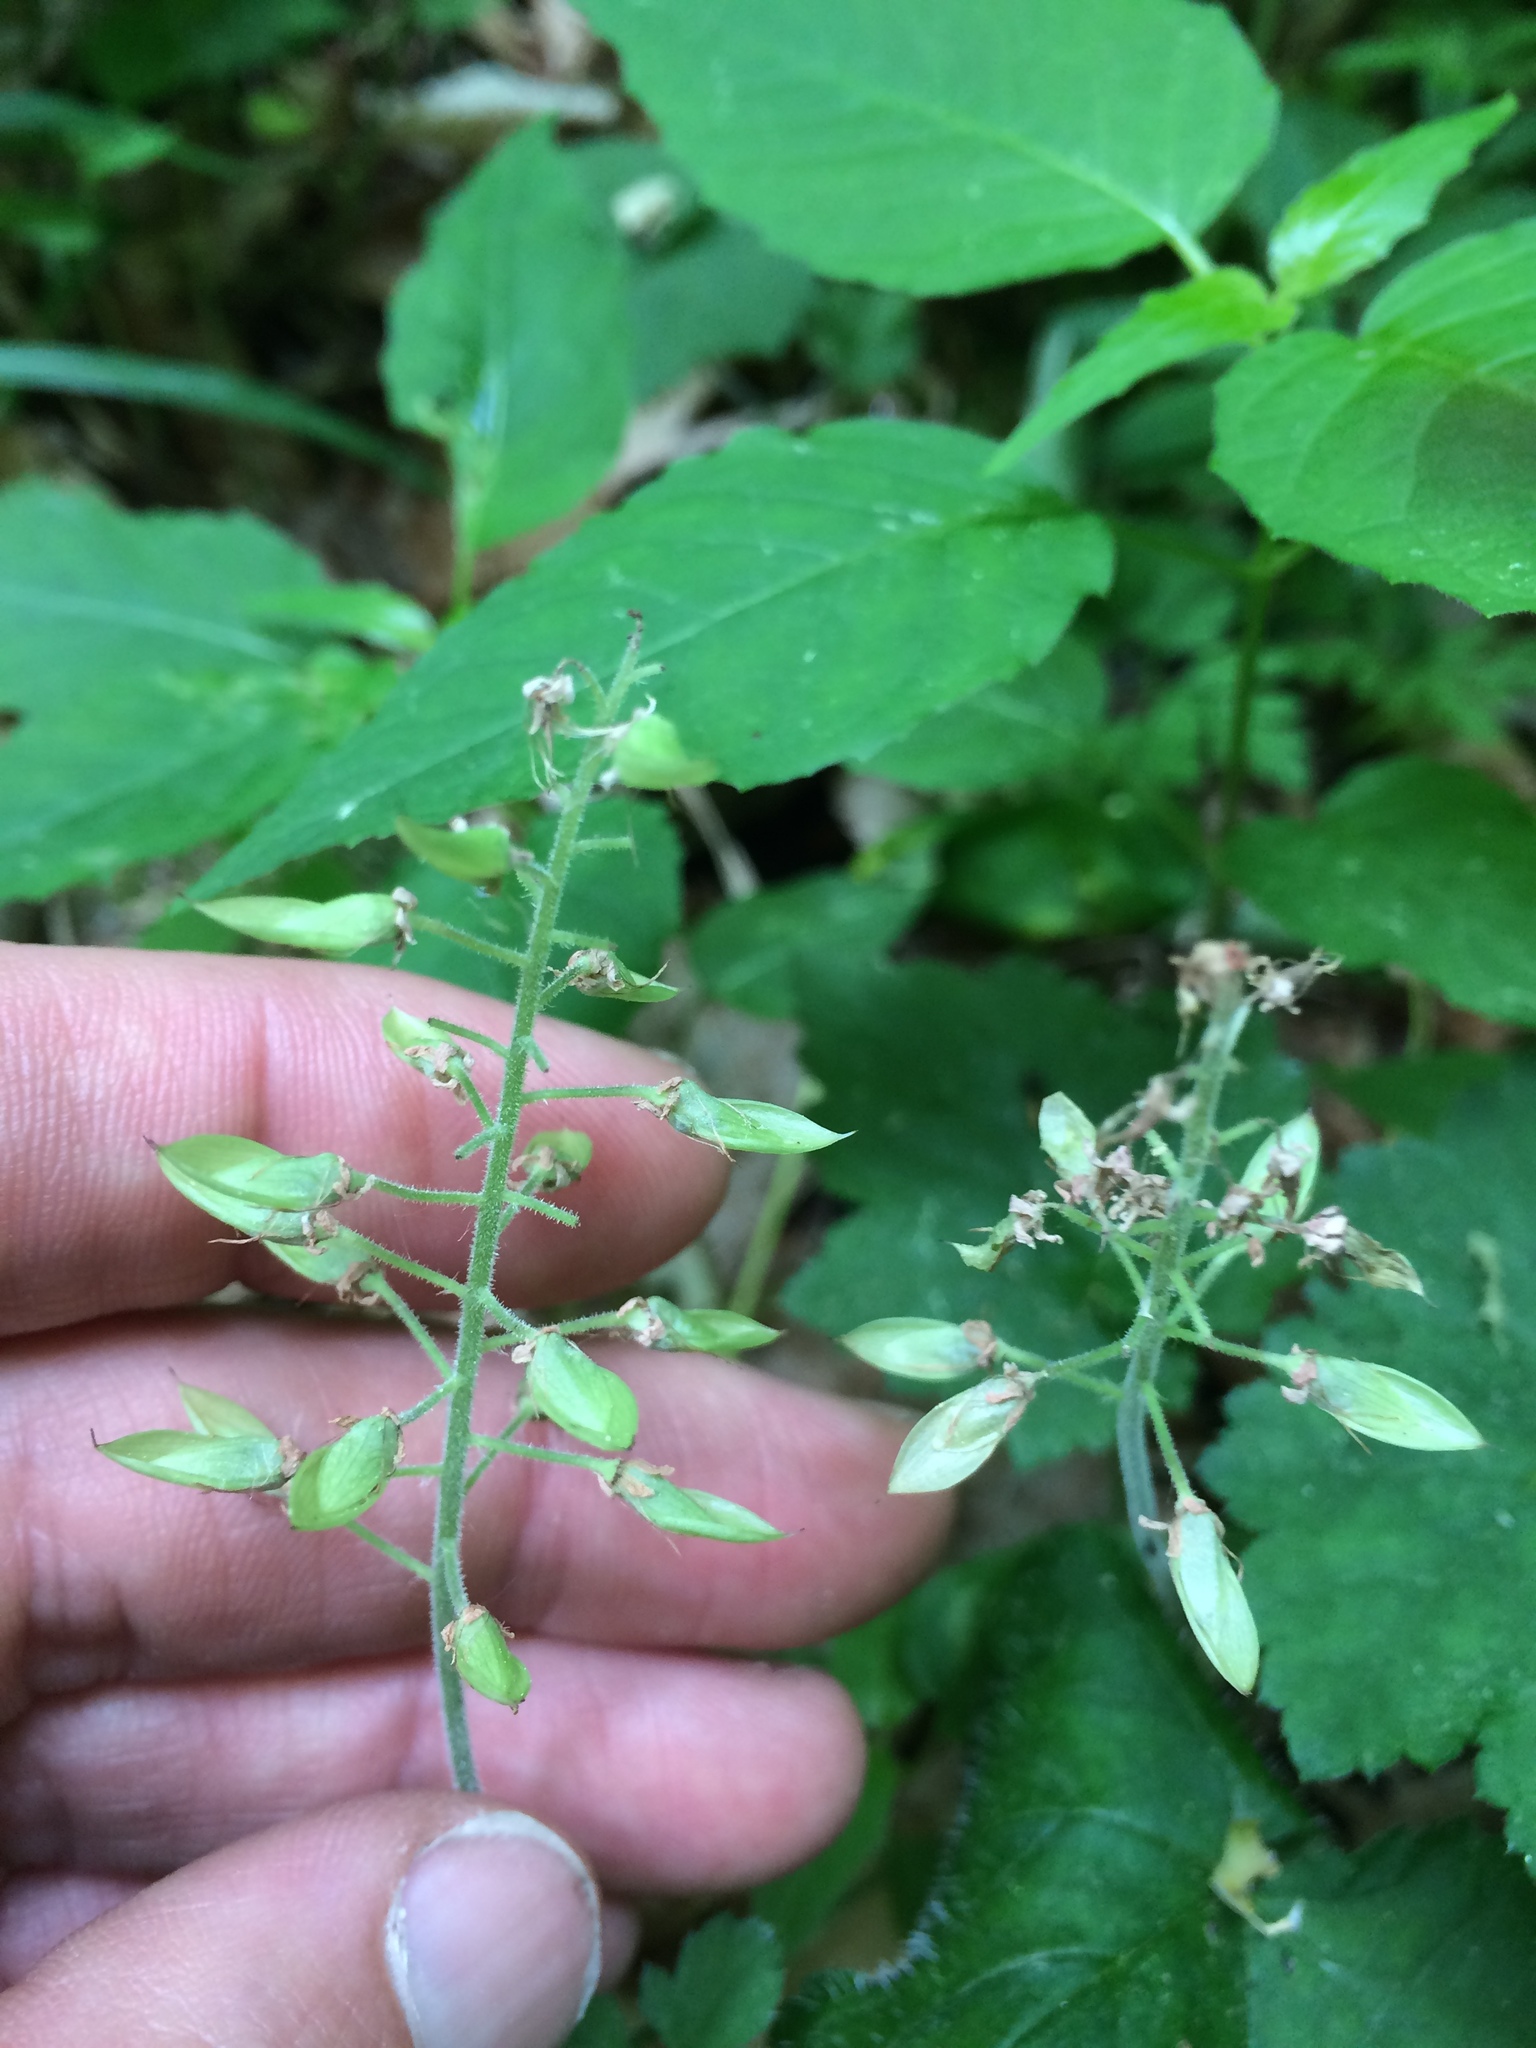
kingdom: Plantae
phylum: Tracheophyta
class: Magnoliopsida
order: Saxifragales
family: Saxifragaceae
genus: Tiarella
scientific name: Tiarella stolonifera
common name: Stoloniferous foamflower
